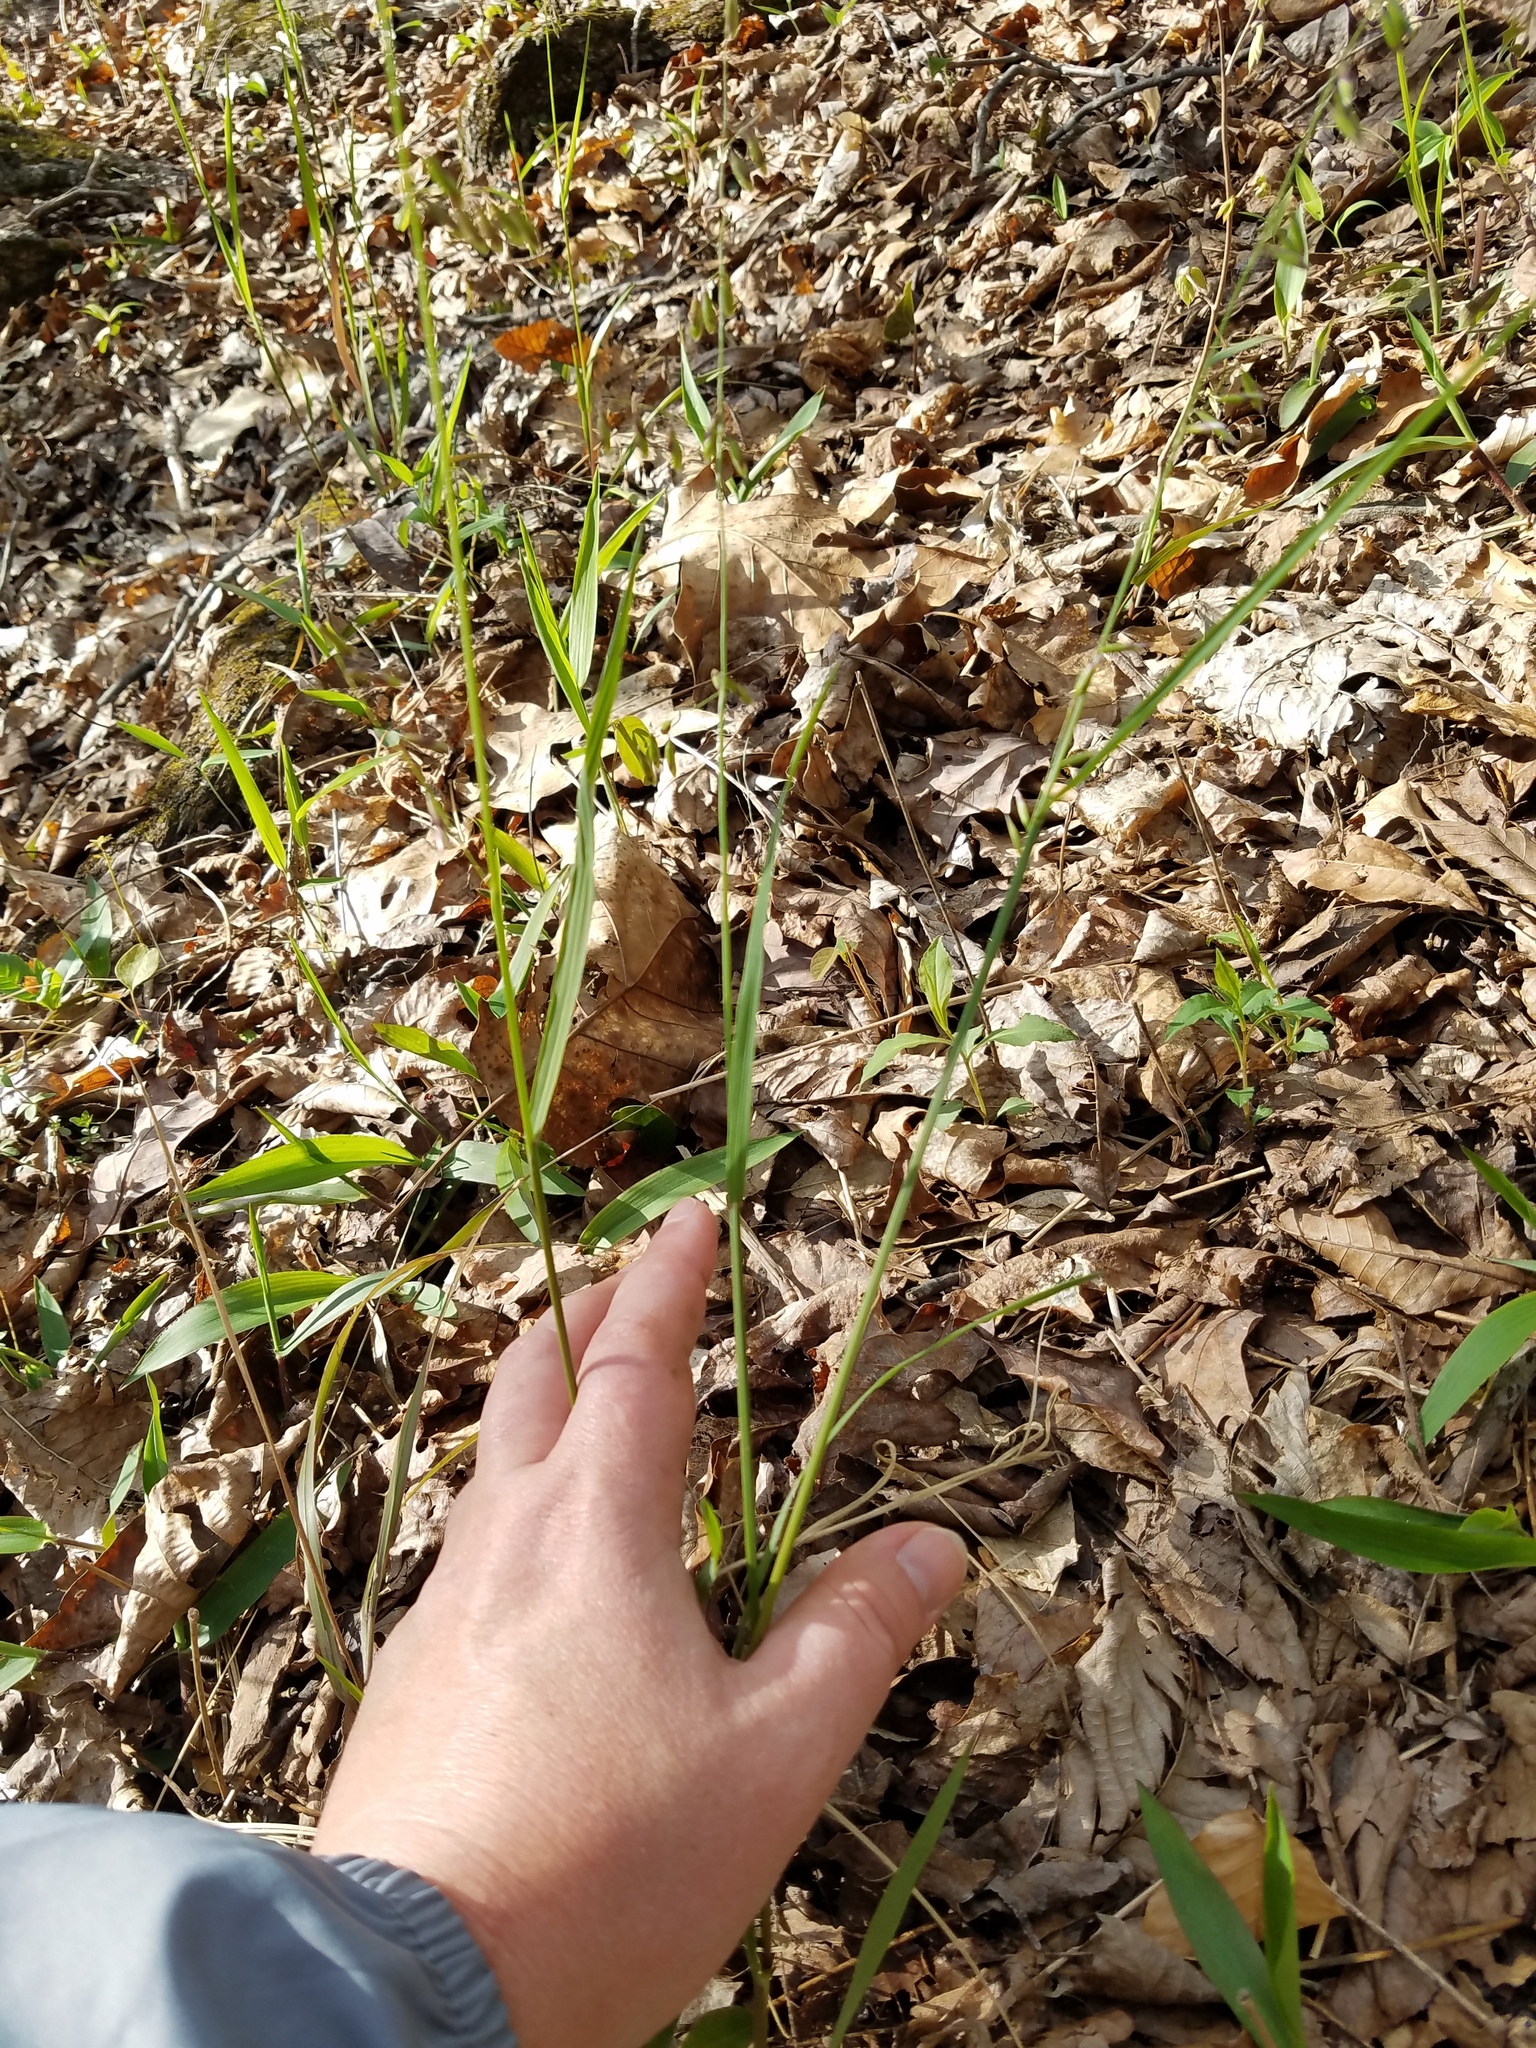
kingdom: Plantae
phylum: Tracheophyta
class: Liliopsida
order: Poales
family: Poaceae
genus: Melica
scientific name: Melica mutica
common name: Two-flower melic
